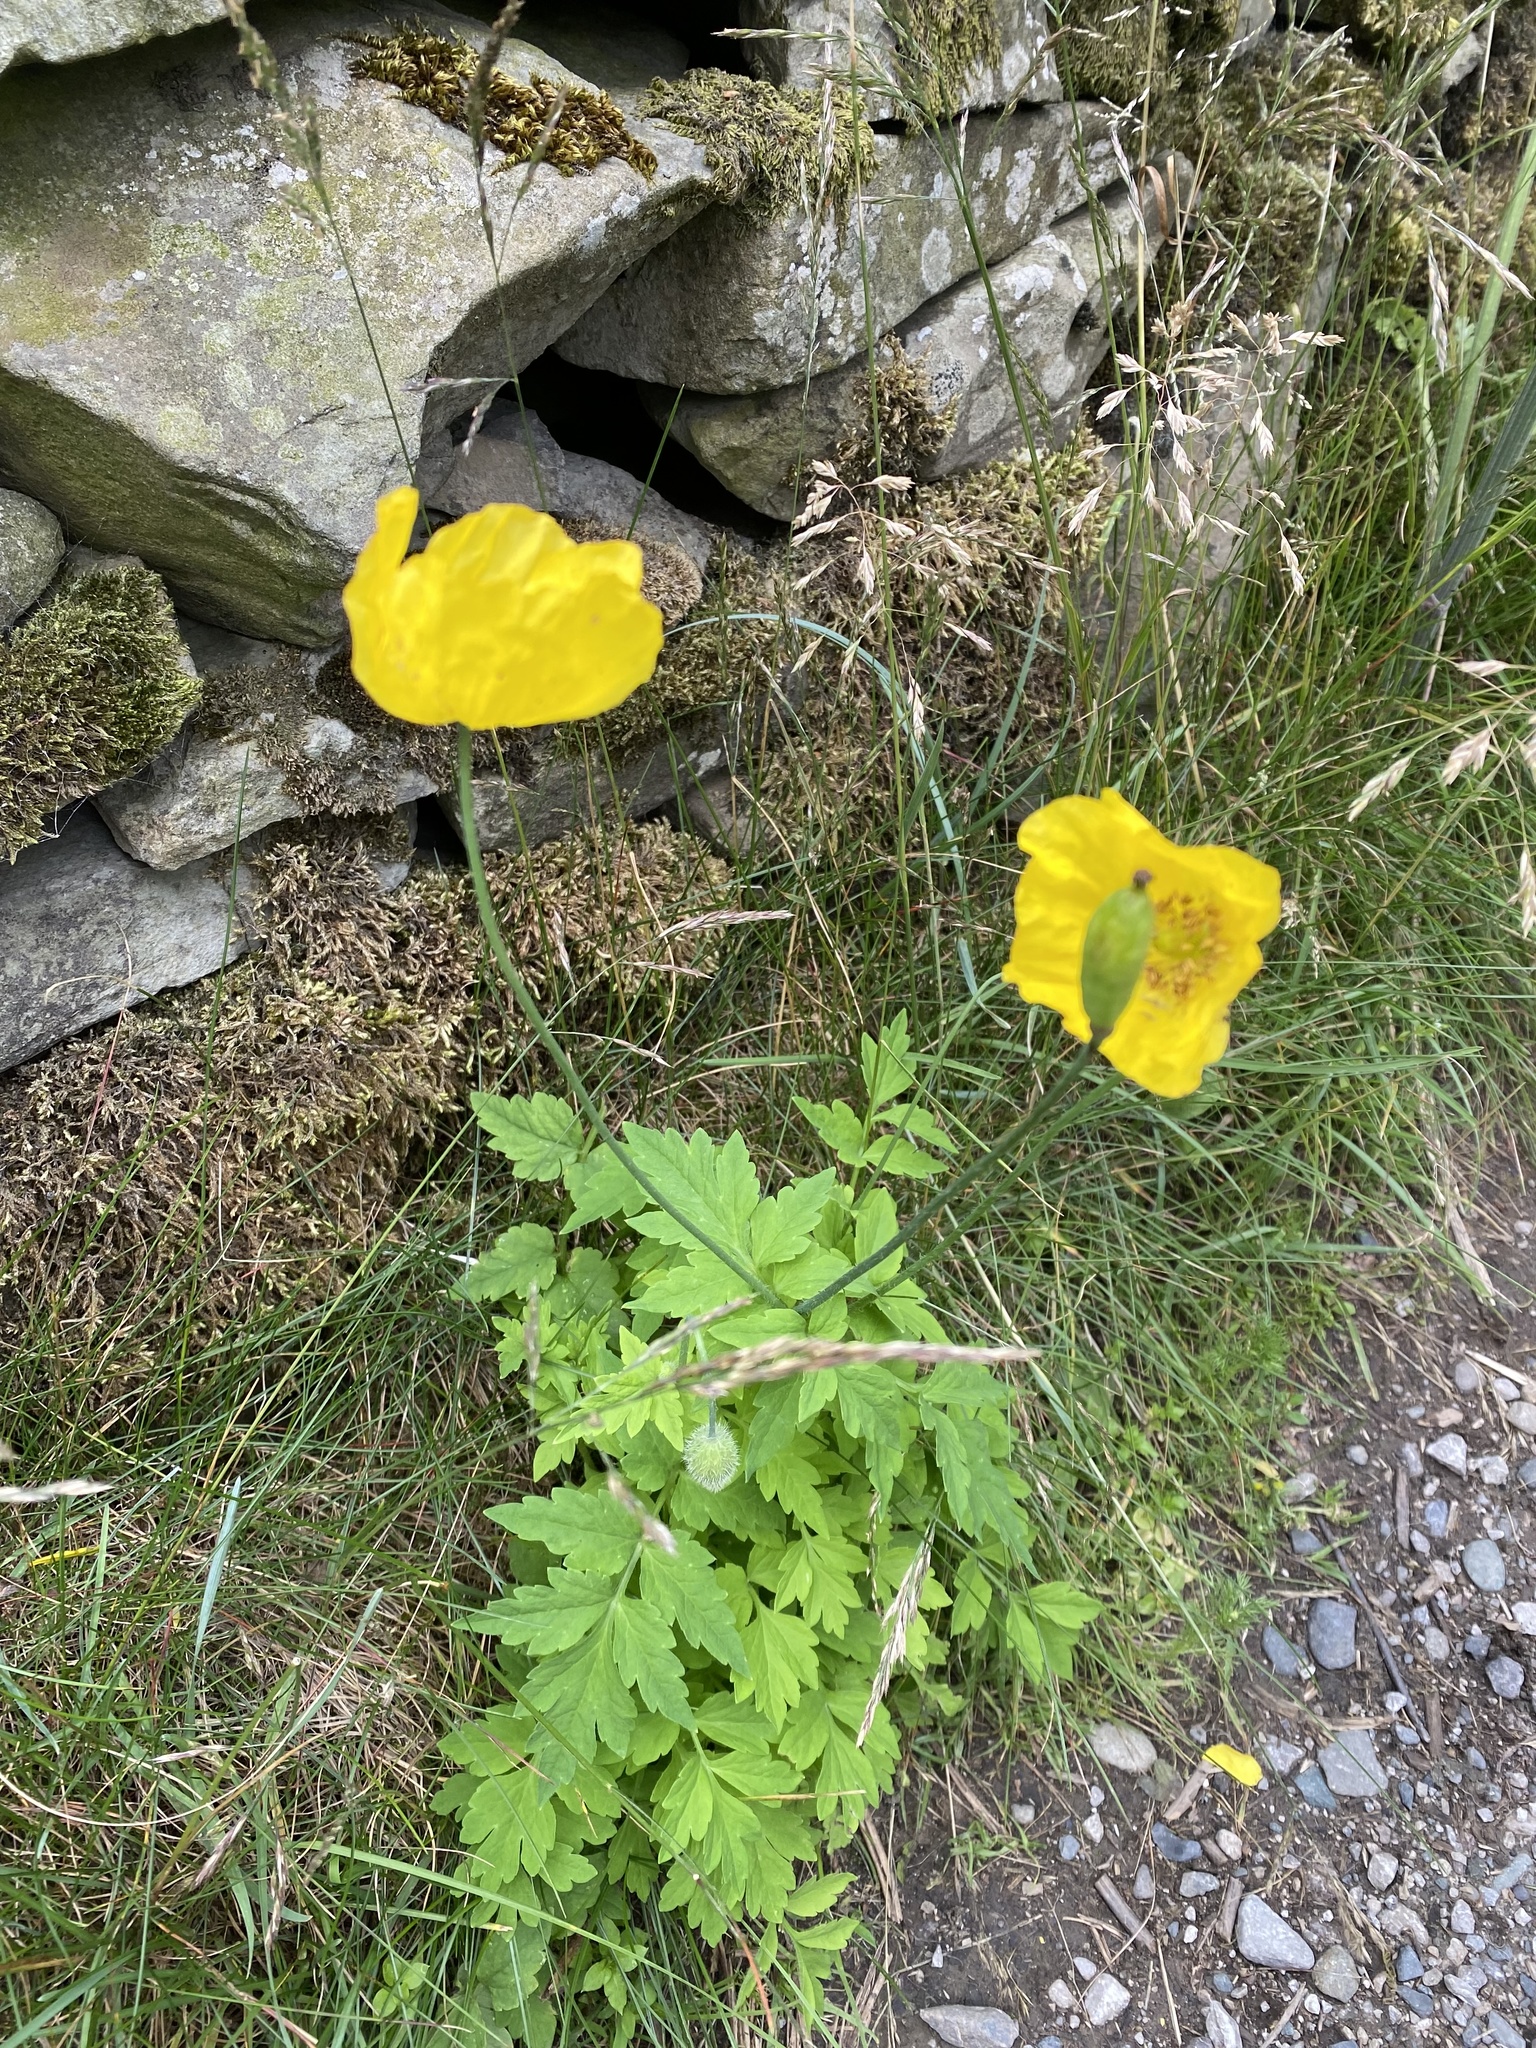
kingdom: Plantae
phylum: Tracheophyta
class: Magnoliopsida
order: Ranunculales
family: Papaveraceae
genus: Papaver
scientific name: Papaver cambricum
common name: Poppy
